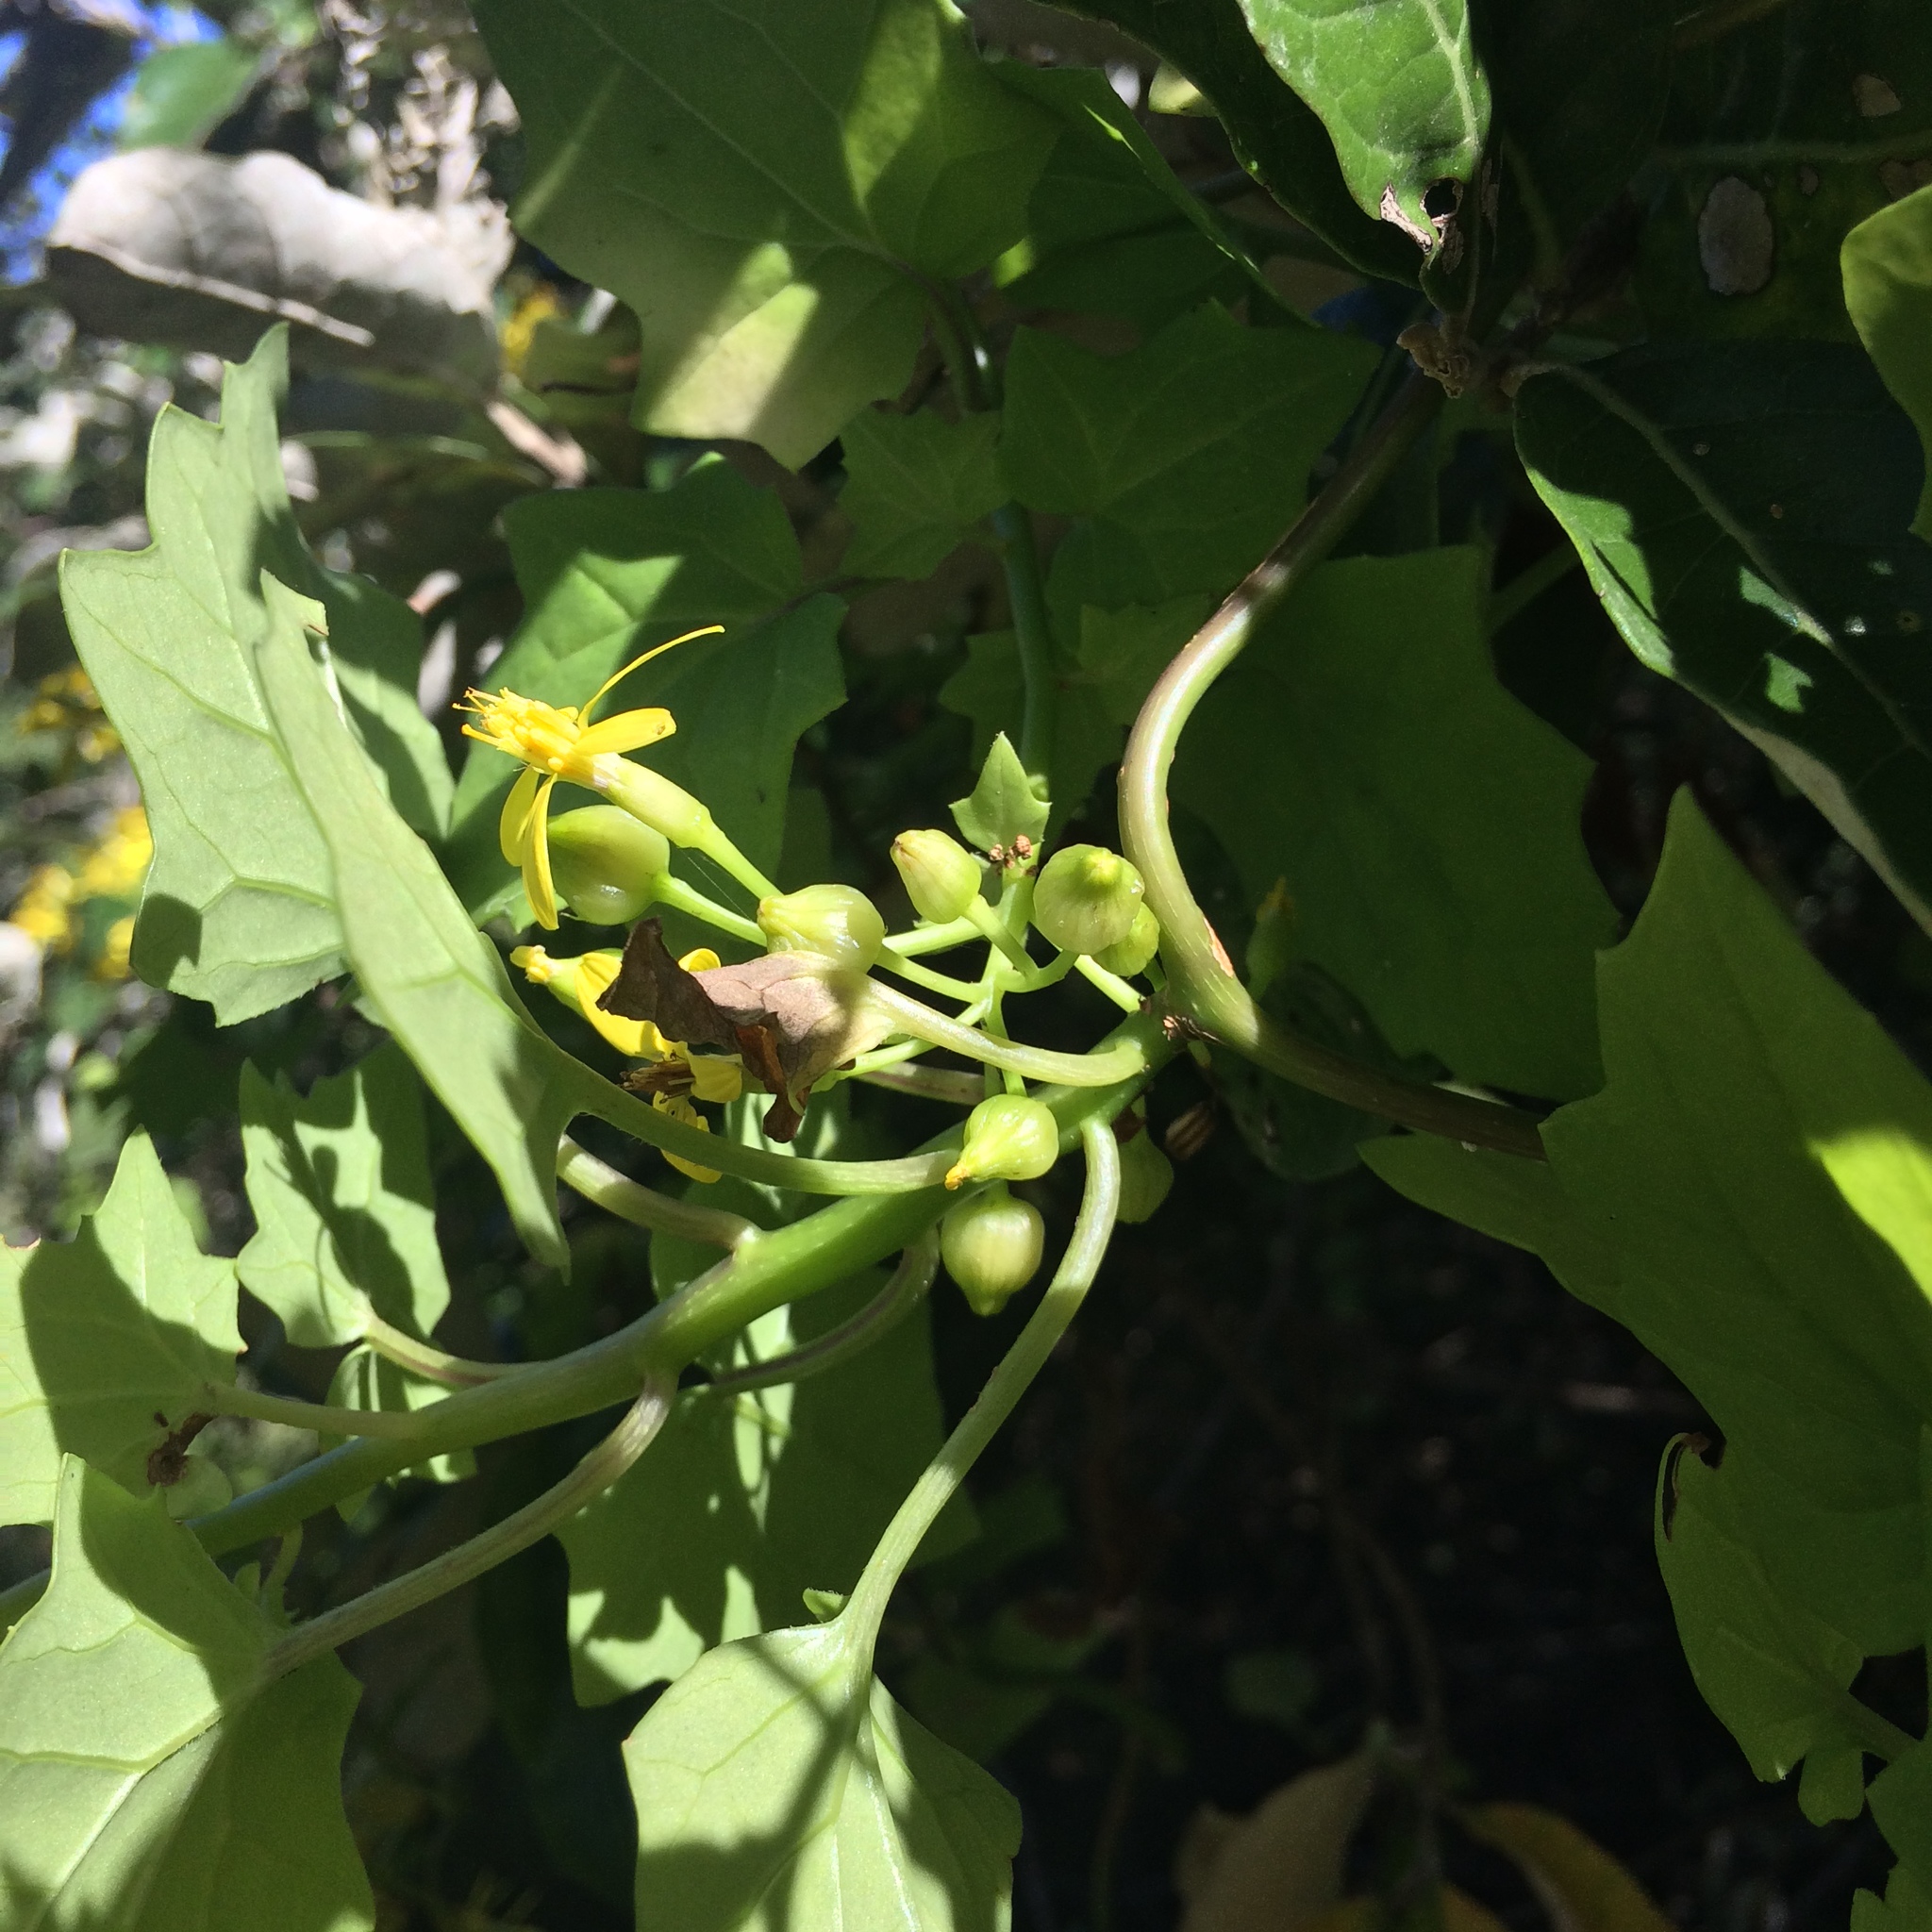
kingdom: Plantae
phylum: Tracheophyta
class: Magnoliopsida
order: Asterales
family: Asteraceae
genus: Senecio
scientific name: Senecio tamoides
